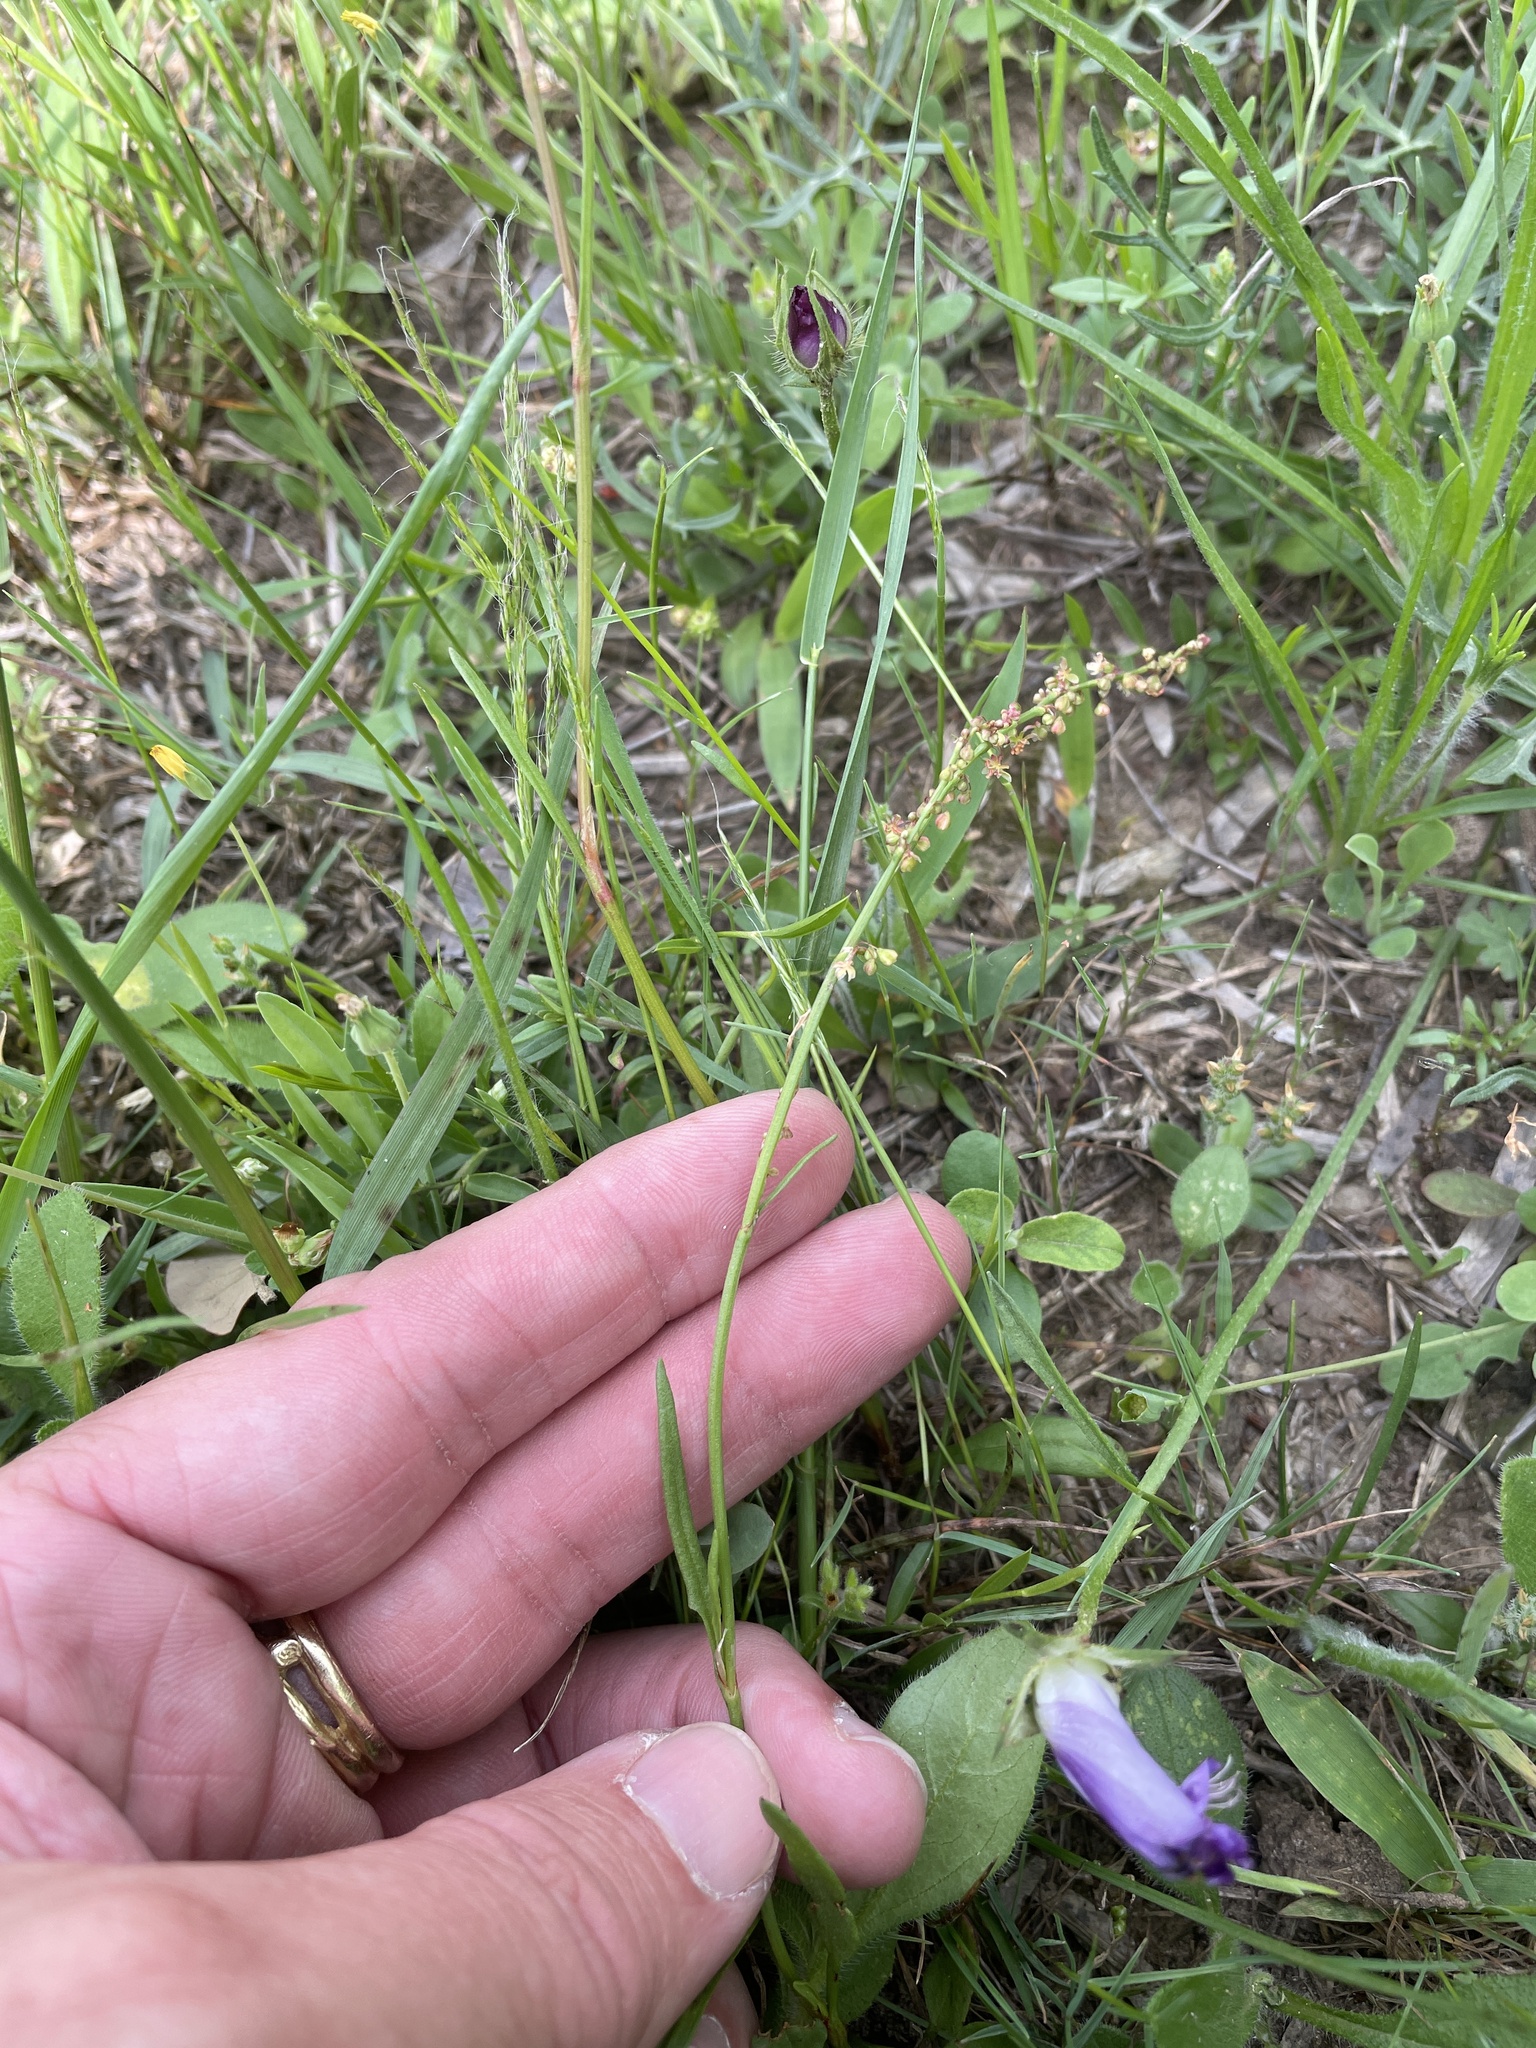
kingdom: Plantae
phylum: Tracheophyta
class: Magnoliopsida
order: Caryophyllales
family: Polygonaceae
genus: Rumex
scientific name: Rumex hastatulus
